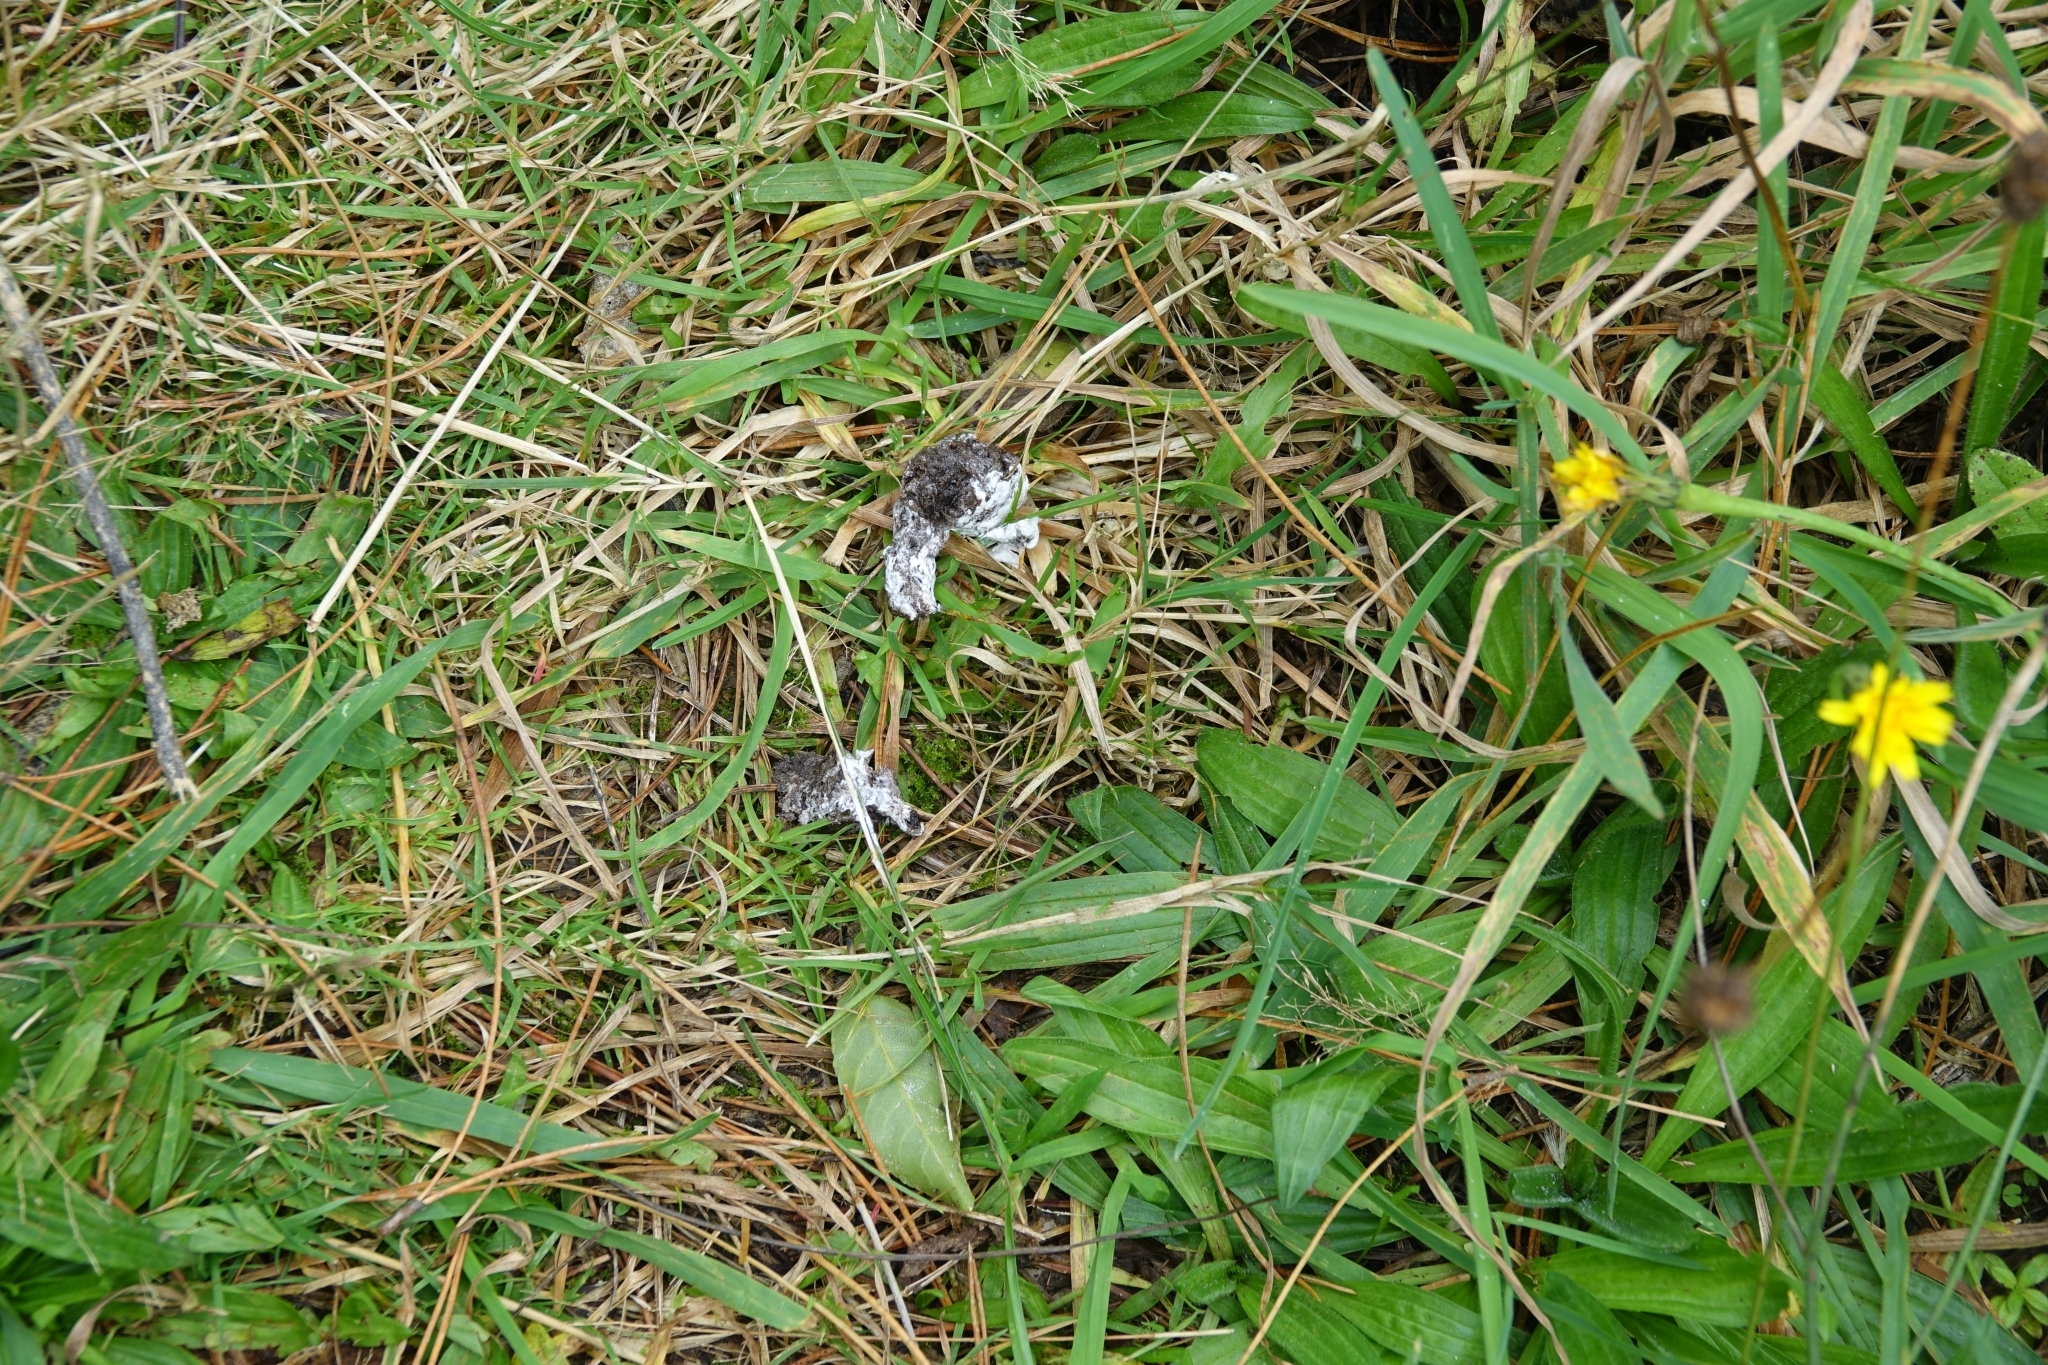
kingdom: Animalia
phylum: Chordata
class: Aves
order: Apterygiformes
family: Apterygidae
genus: Apteryx
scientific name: Apteryx owenii
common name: Little spotted kiwi
